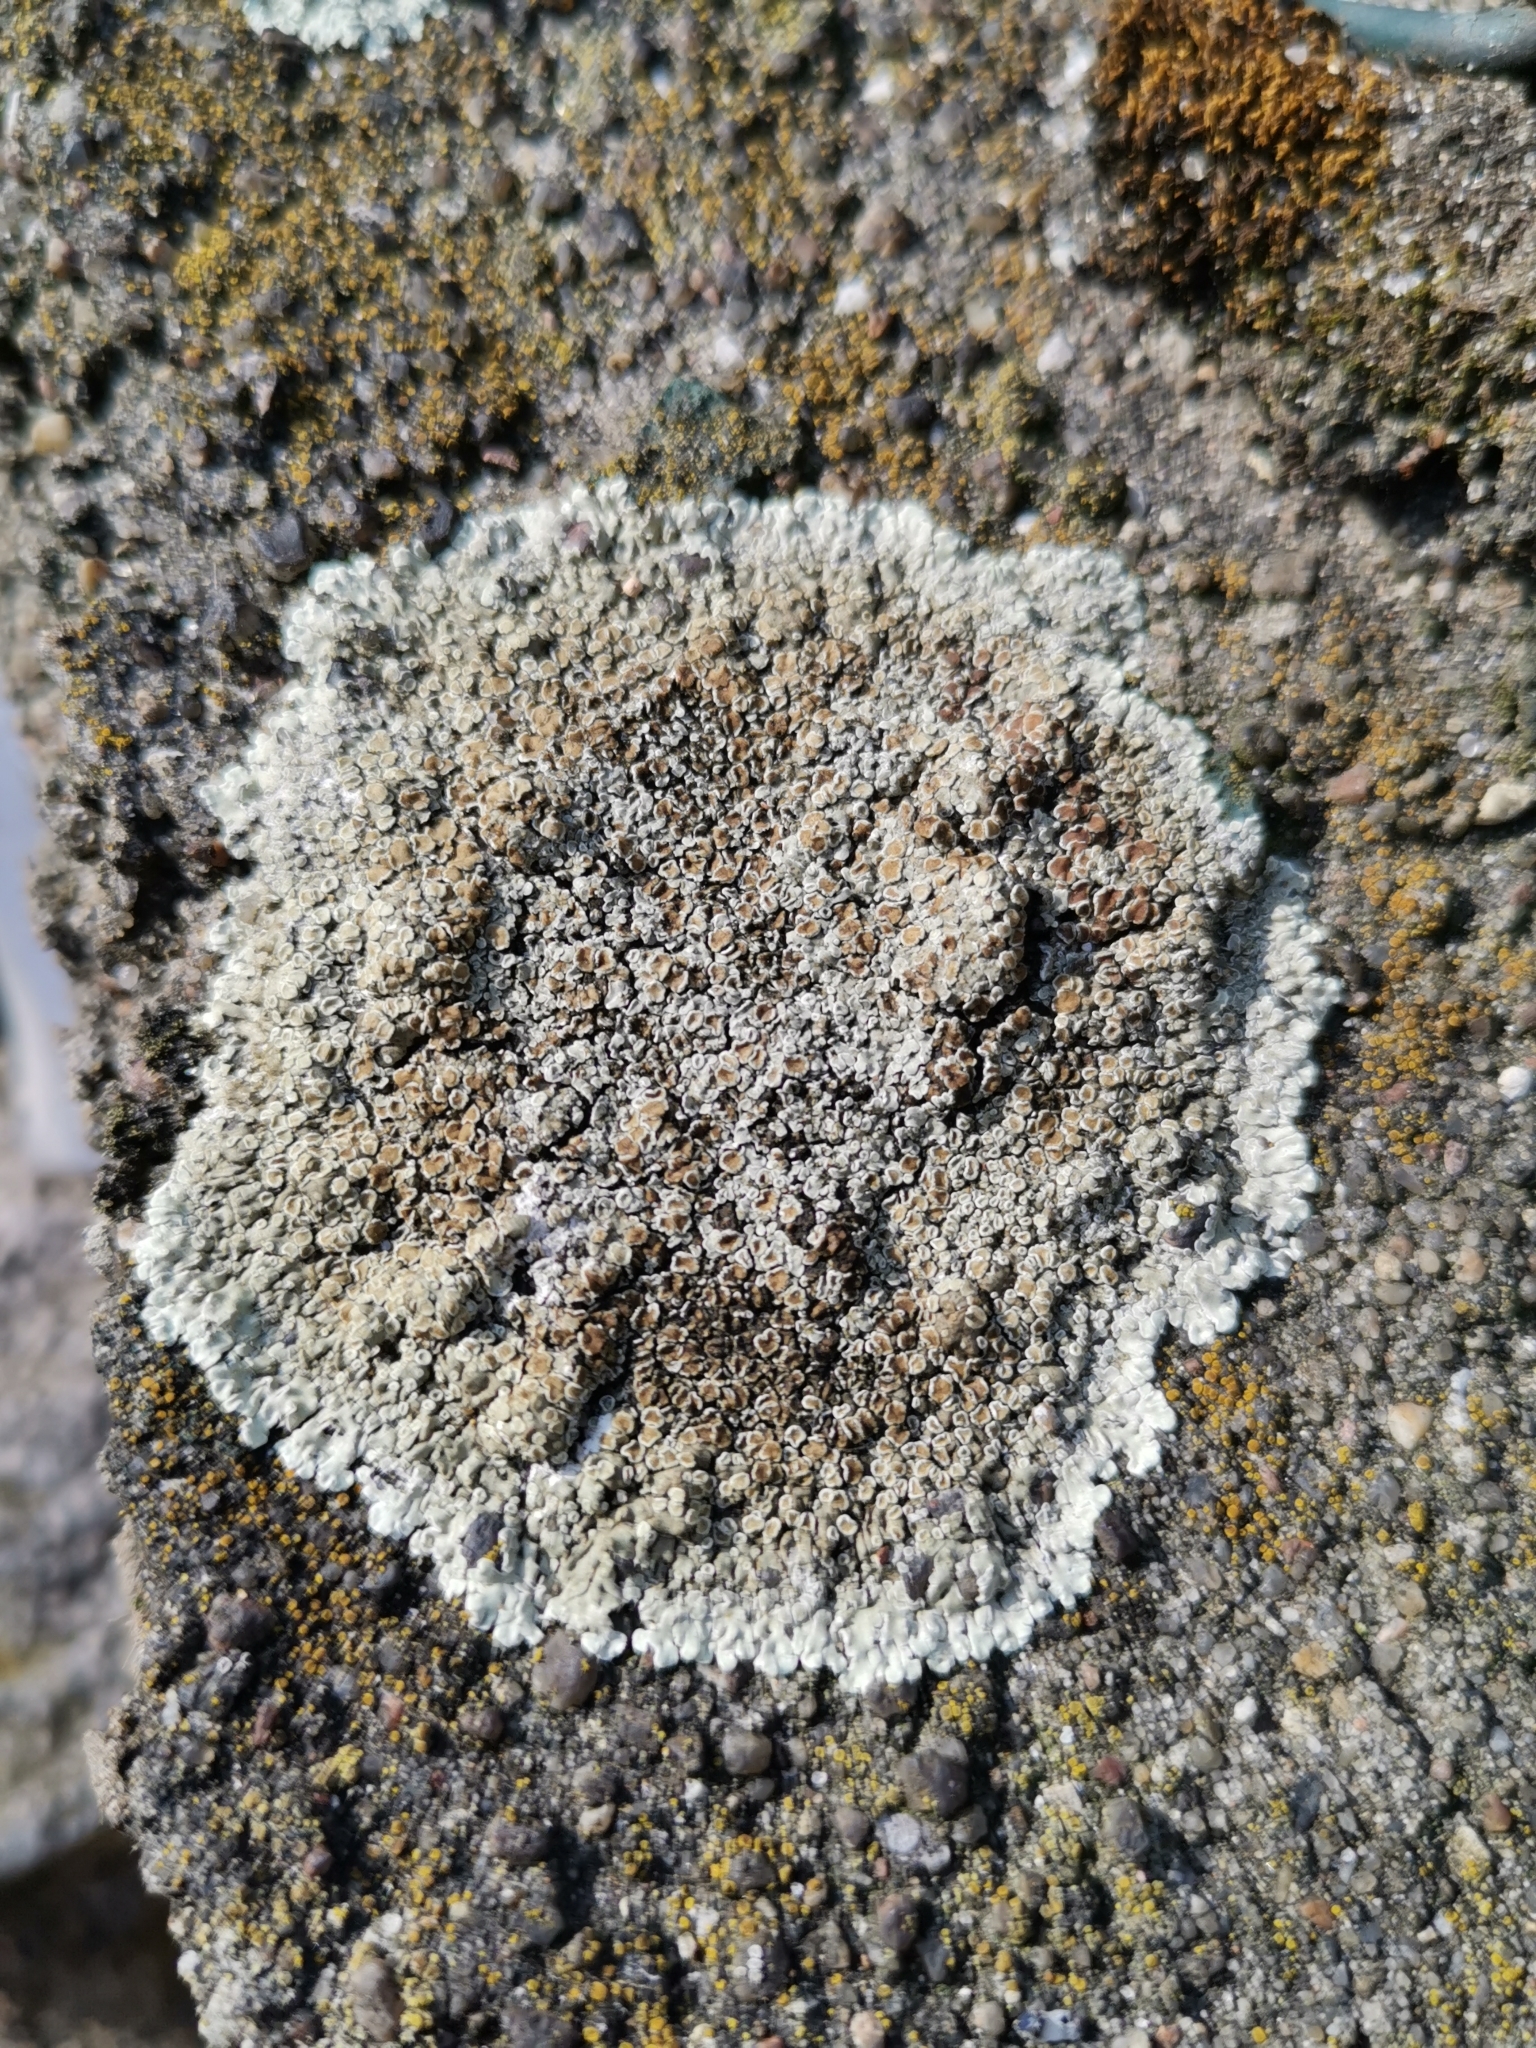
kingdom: Fungi
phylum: Ascomycota
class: Lecanoromycetes
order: Lecanorales
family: Lecanoraceae
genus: Protoparmeliopsis
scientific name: Protoparmeliopsis muralis
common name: Stonewall rim lichen
